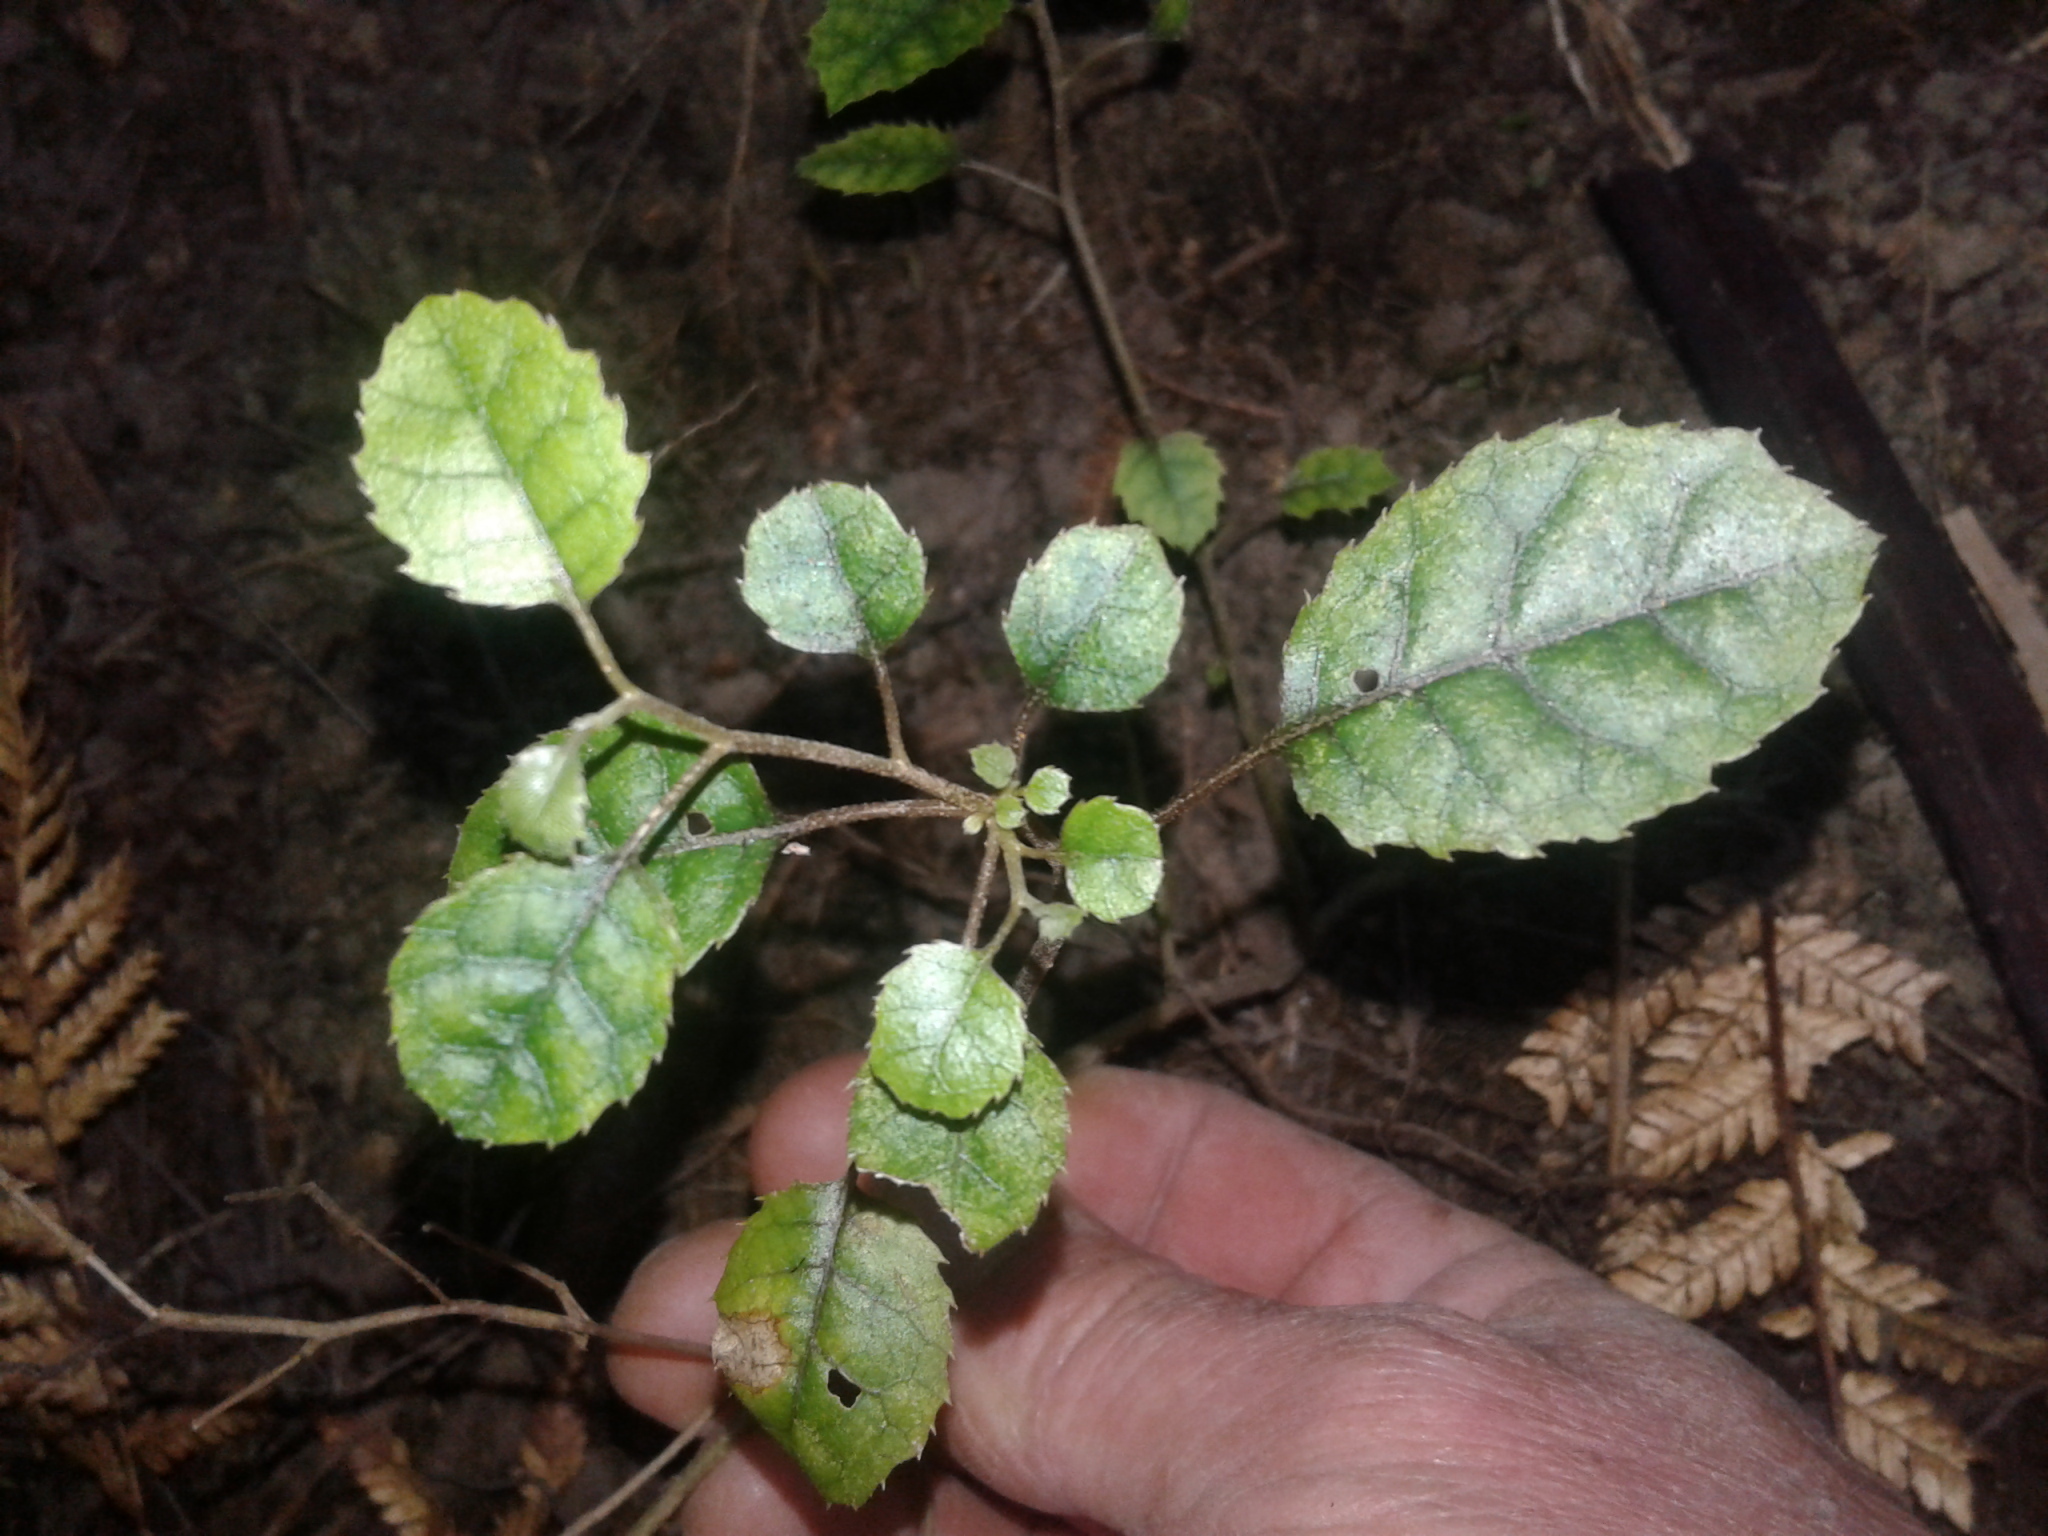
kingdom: Plantae
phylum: Tracheophyta
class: Magnoliopsida
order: Asterales
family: Rousseaceae
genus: Carpodetus
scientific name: Carpodetus serratus
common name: White mapau
